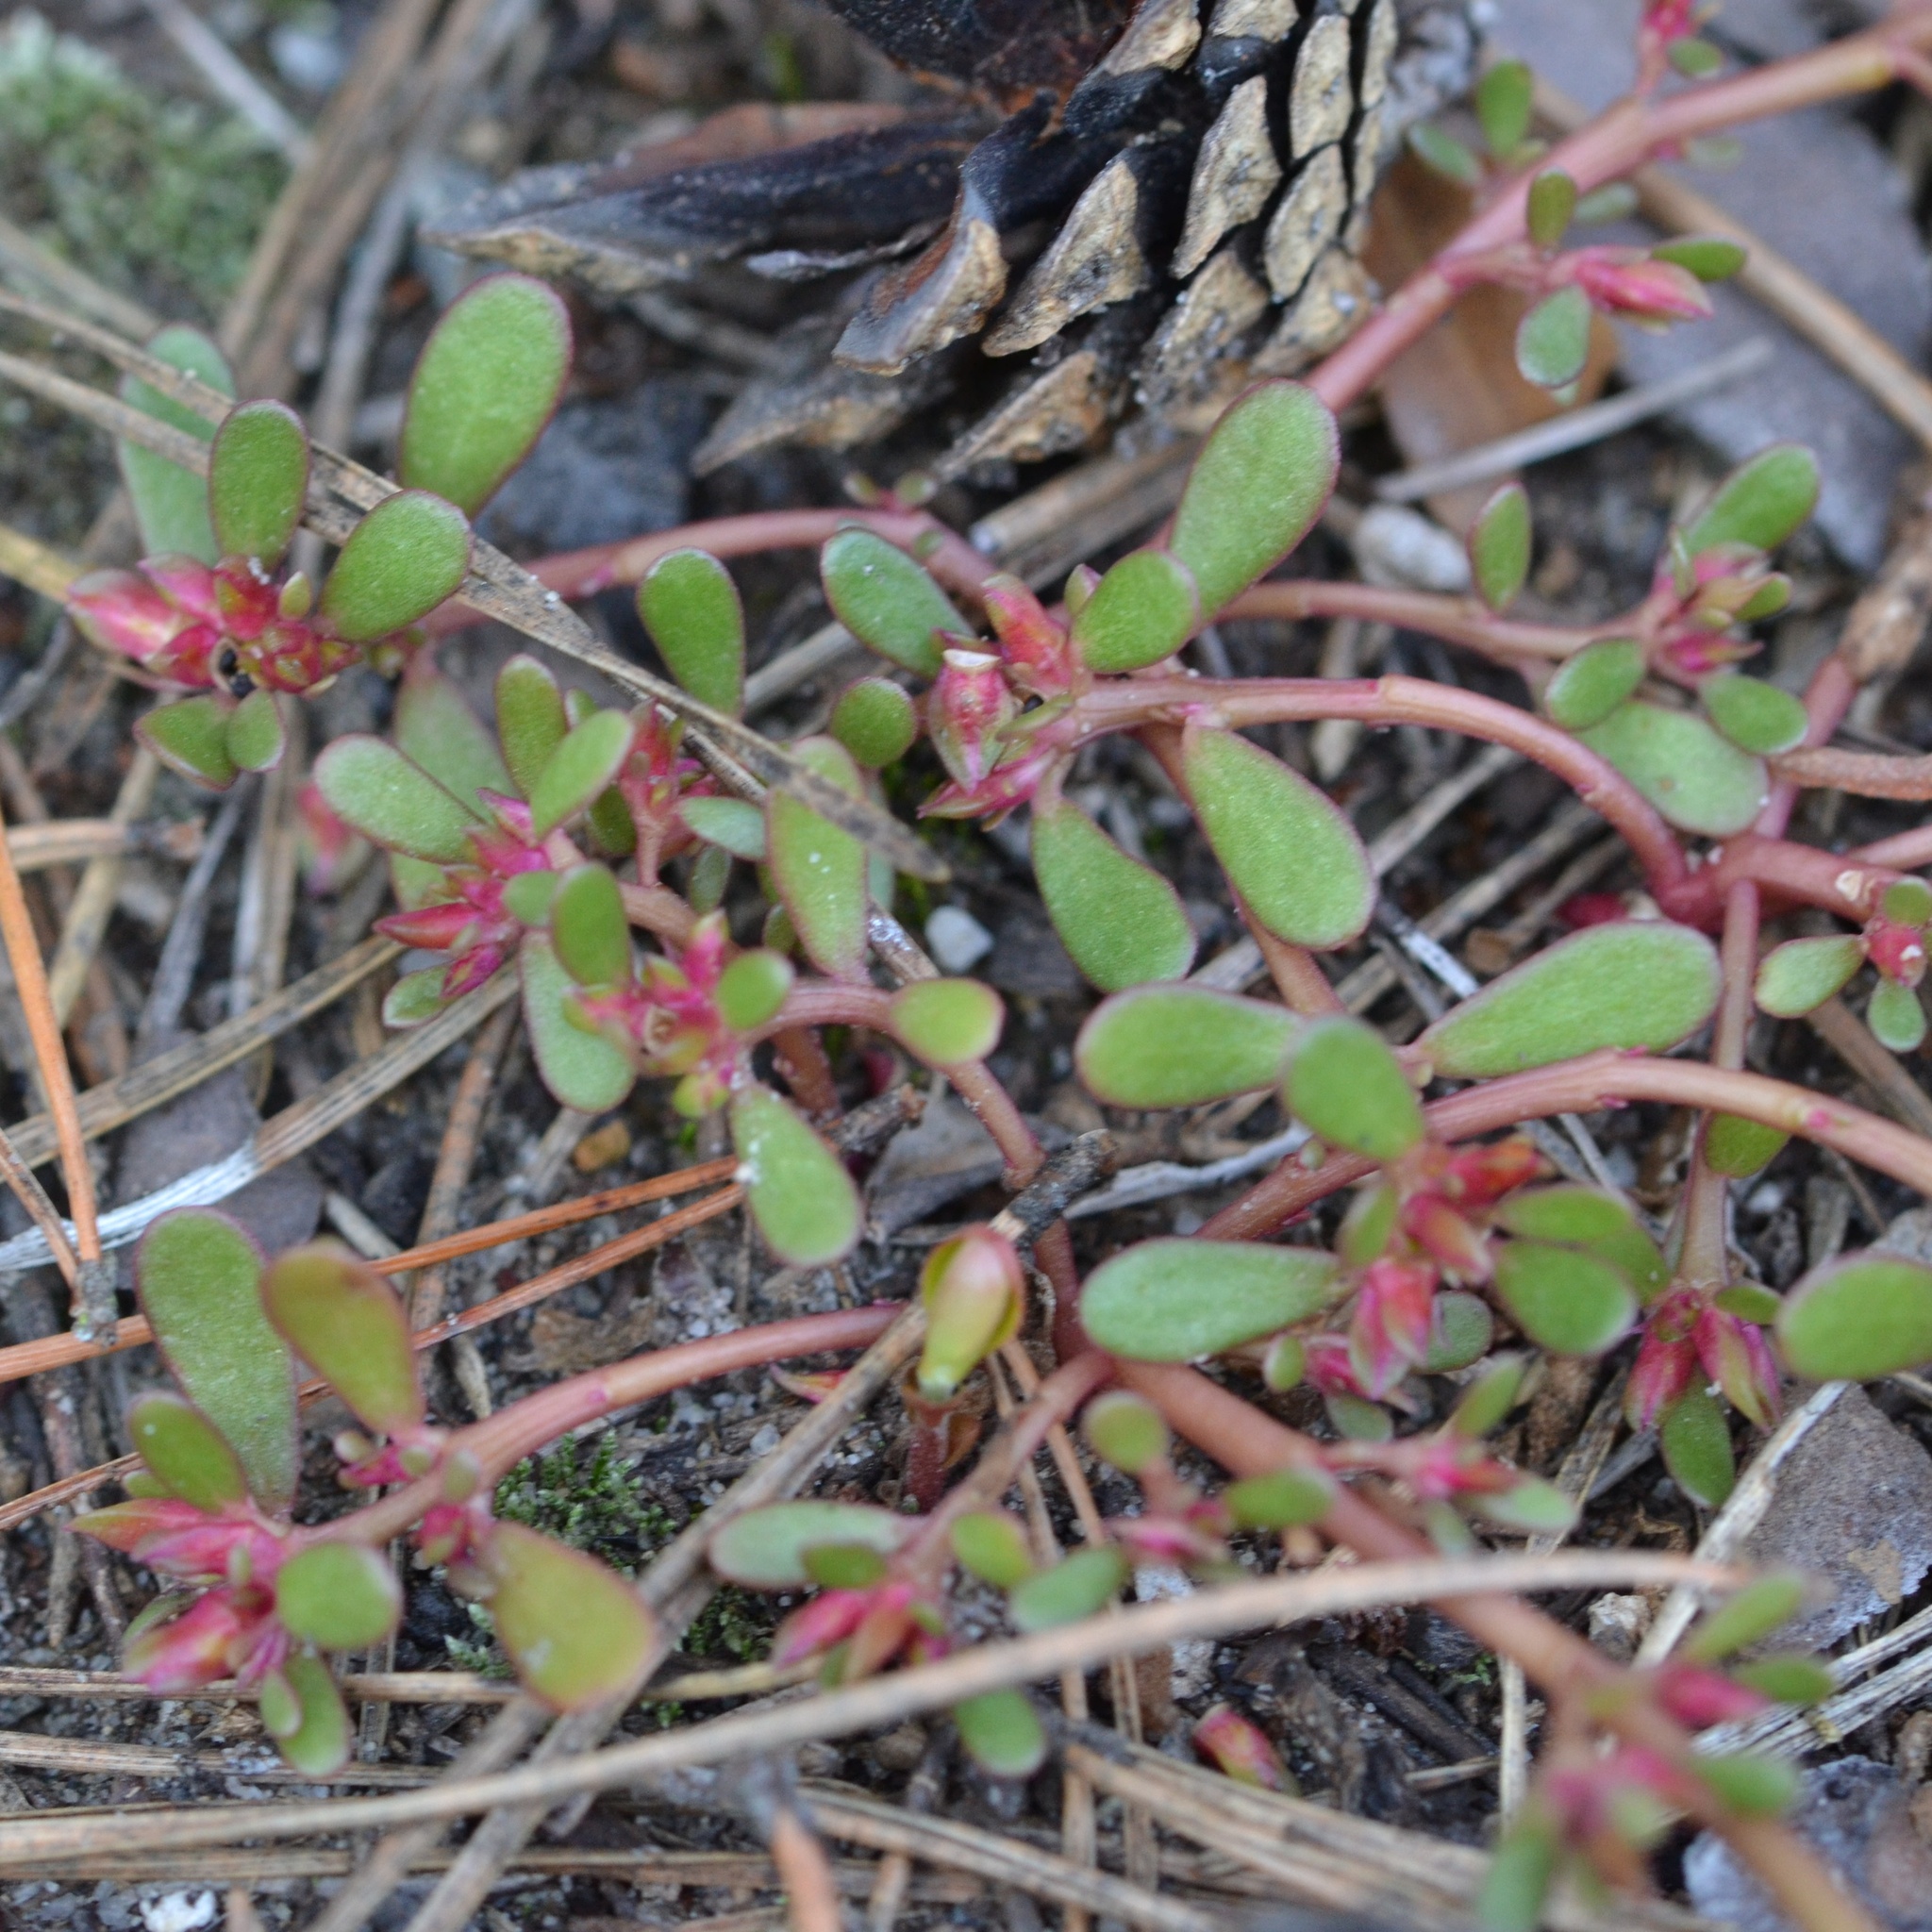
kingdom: Plantae
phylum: Tracheophyta
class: Magnoliopsida
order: Caryophyllales
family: Portulacaceae
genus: Portulaca
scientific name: Portulaca oleracea
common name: Common purslane
